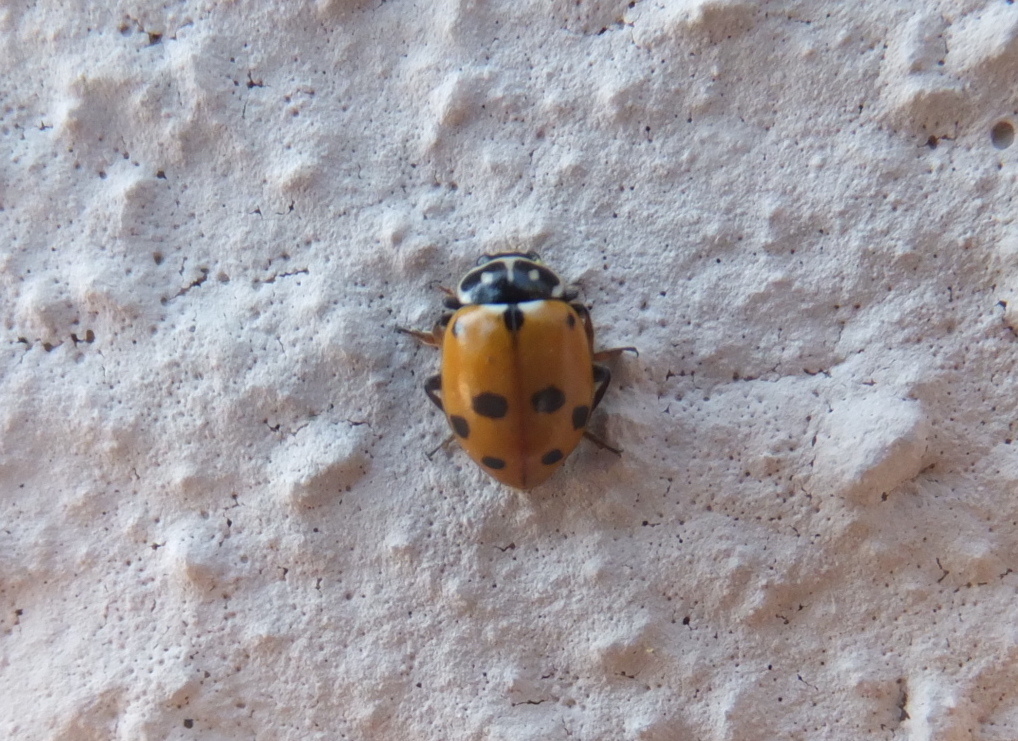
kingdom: Animalia
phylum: Arthropoda
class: Insecta
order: Coleoptera
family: Coccinellidae
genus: Hippodamia
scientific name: Hippodamia variegata
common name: Ladybird beetle
